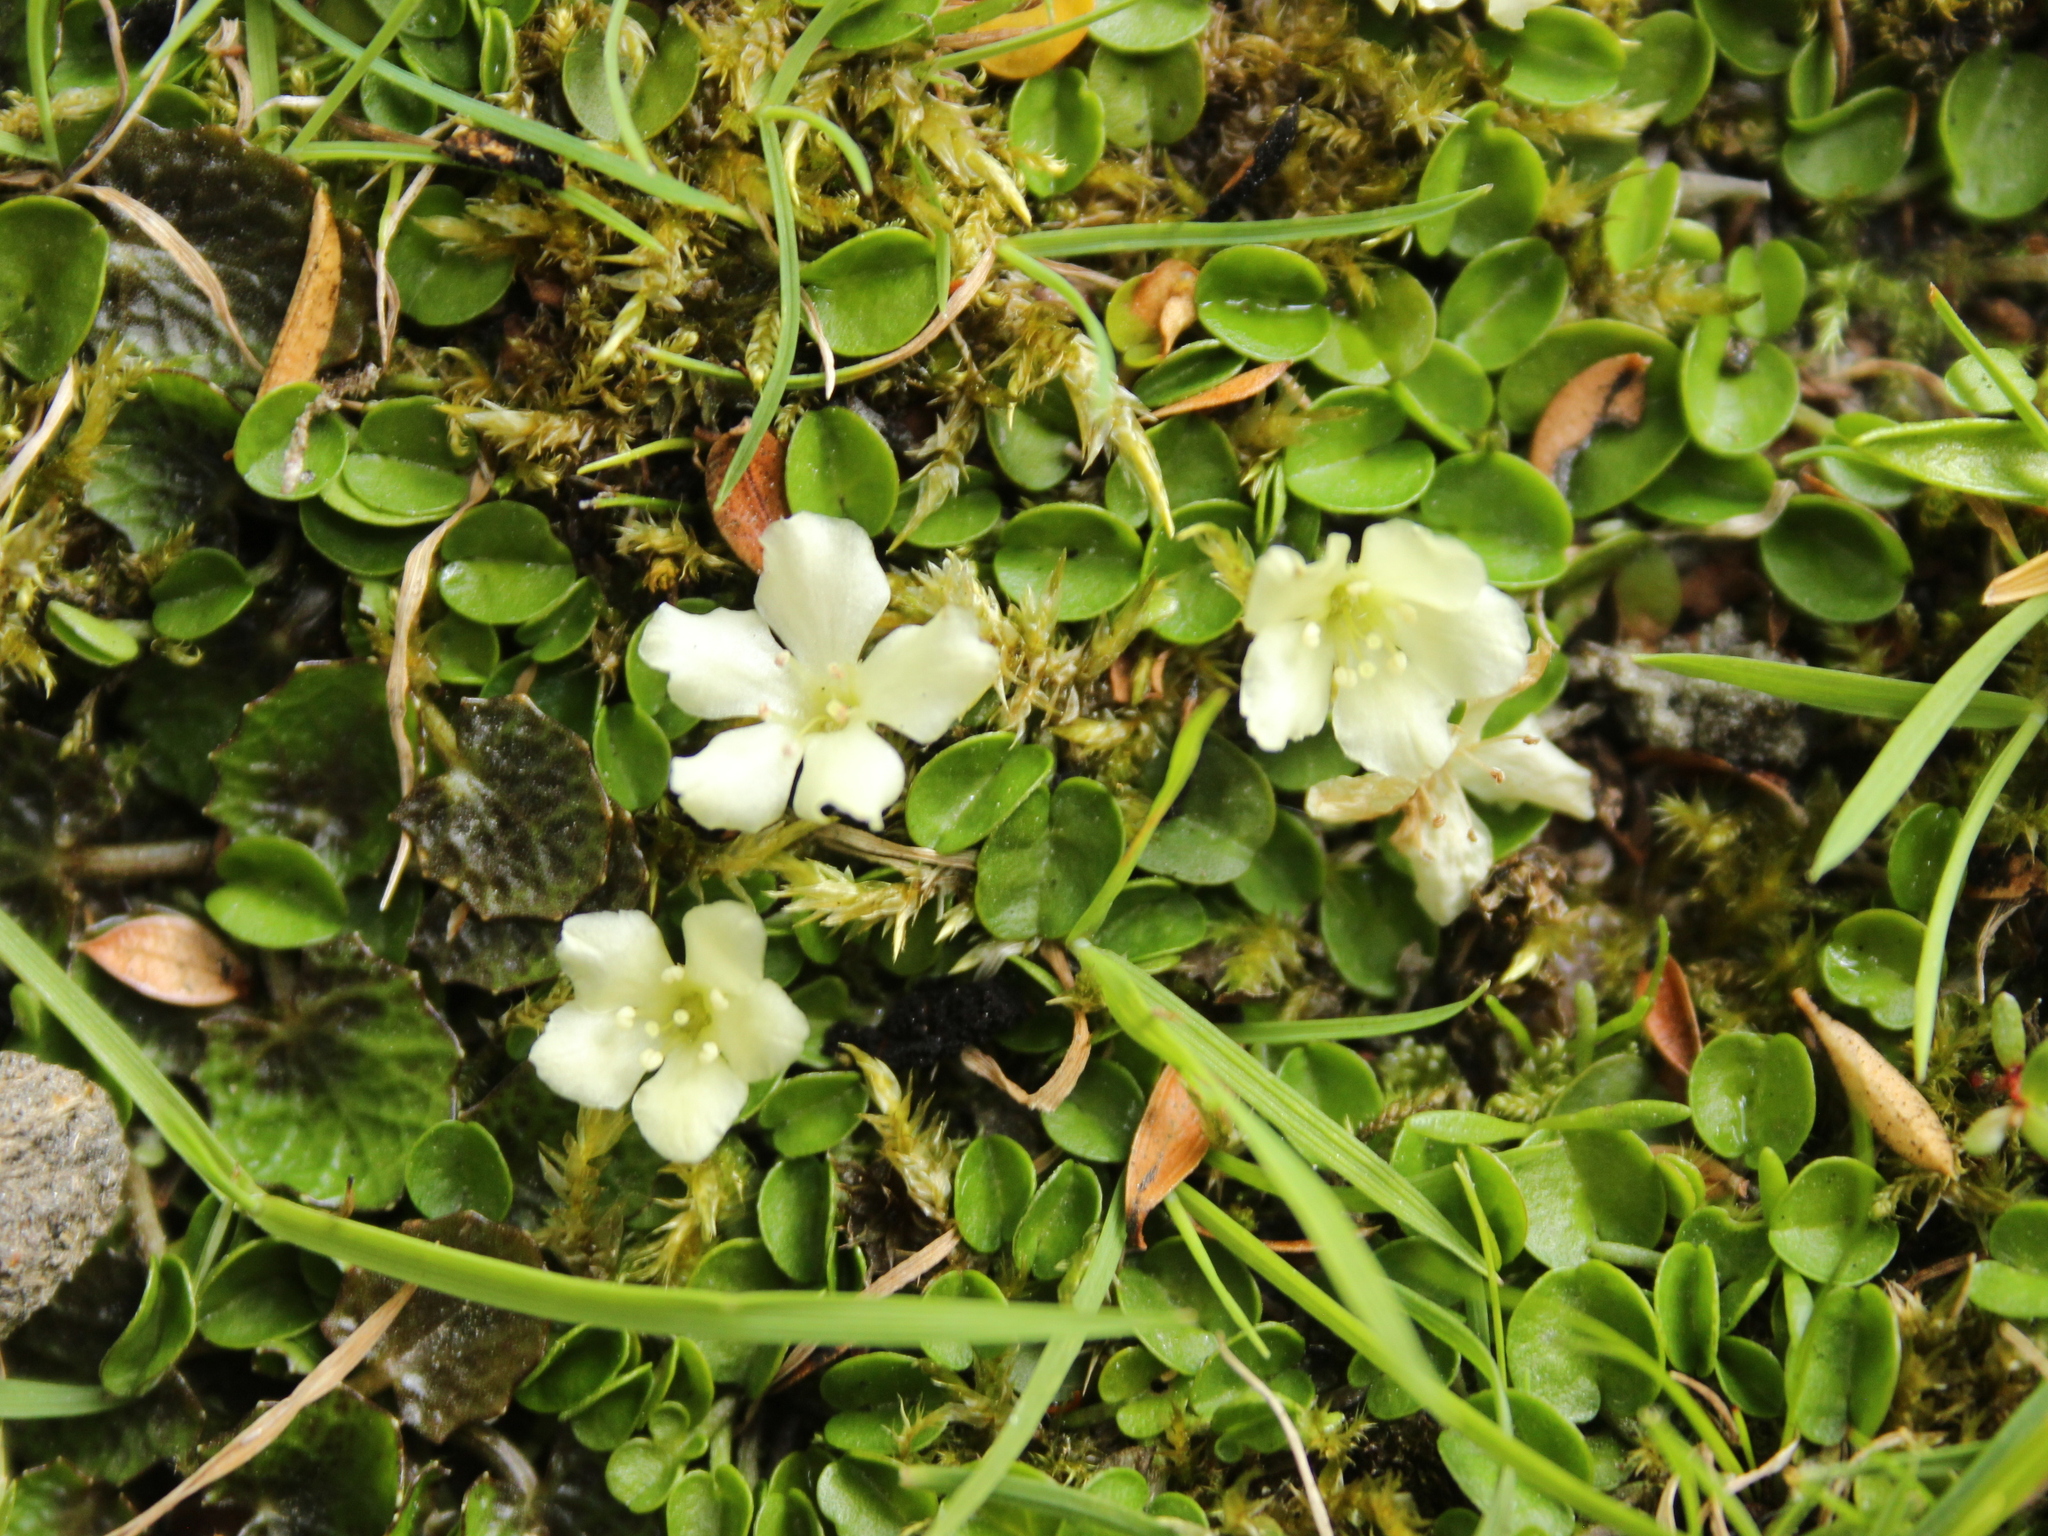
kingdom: Plantae
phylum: Tracheophyta
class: Magnoliopsida
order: Solanales
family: Convolvulaceae
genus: Dichondra
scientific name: Dichondra brevifolia
